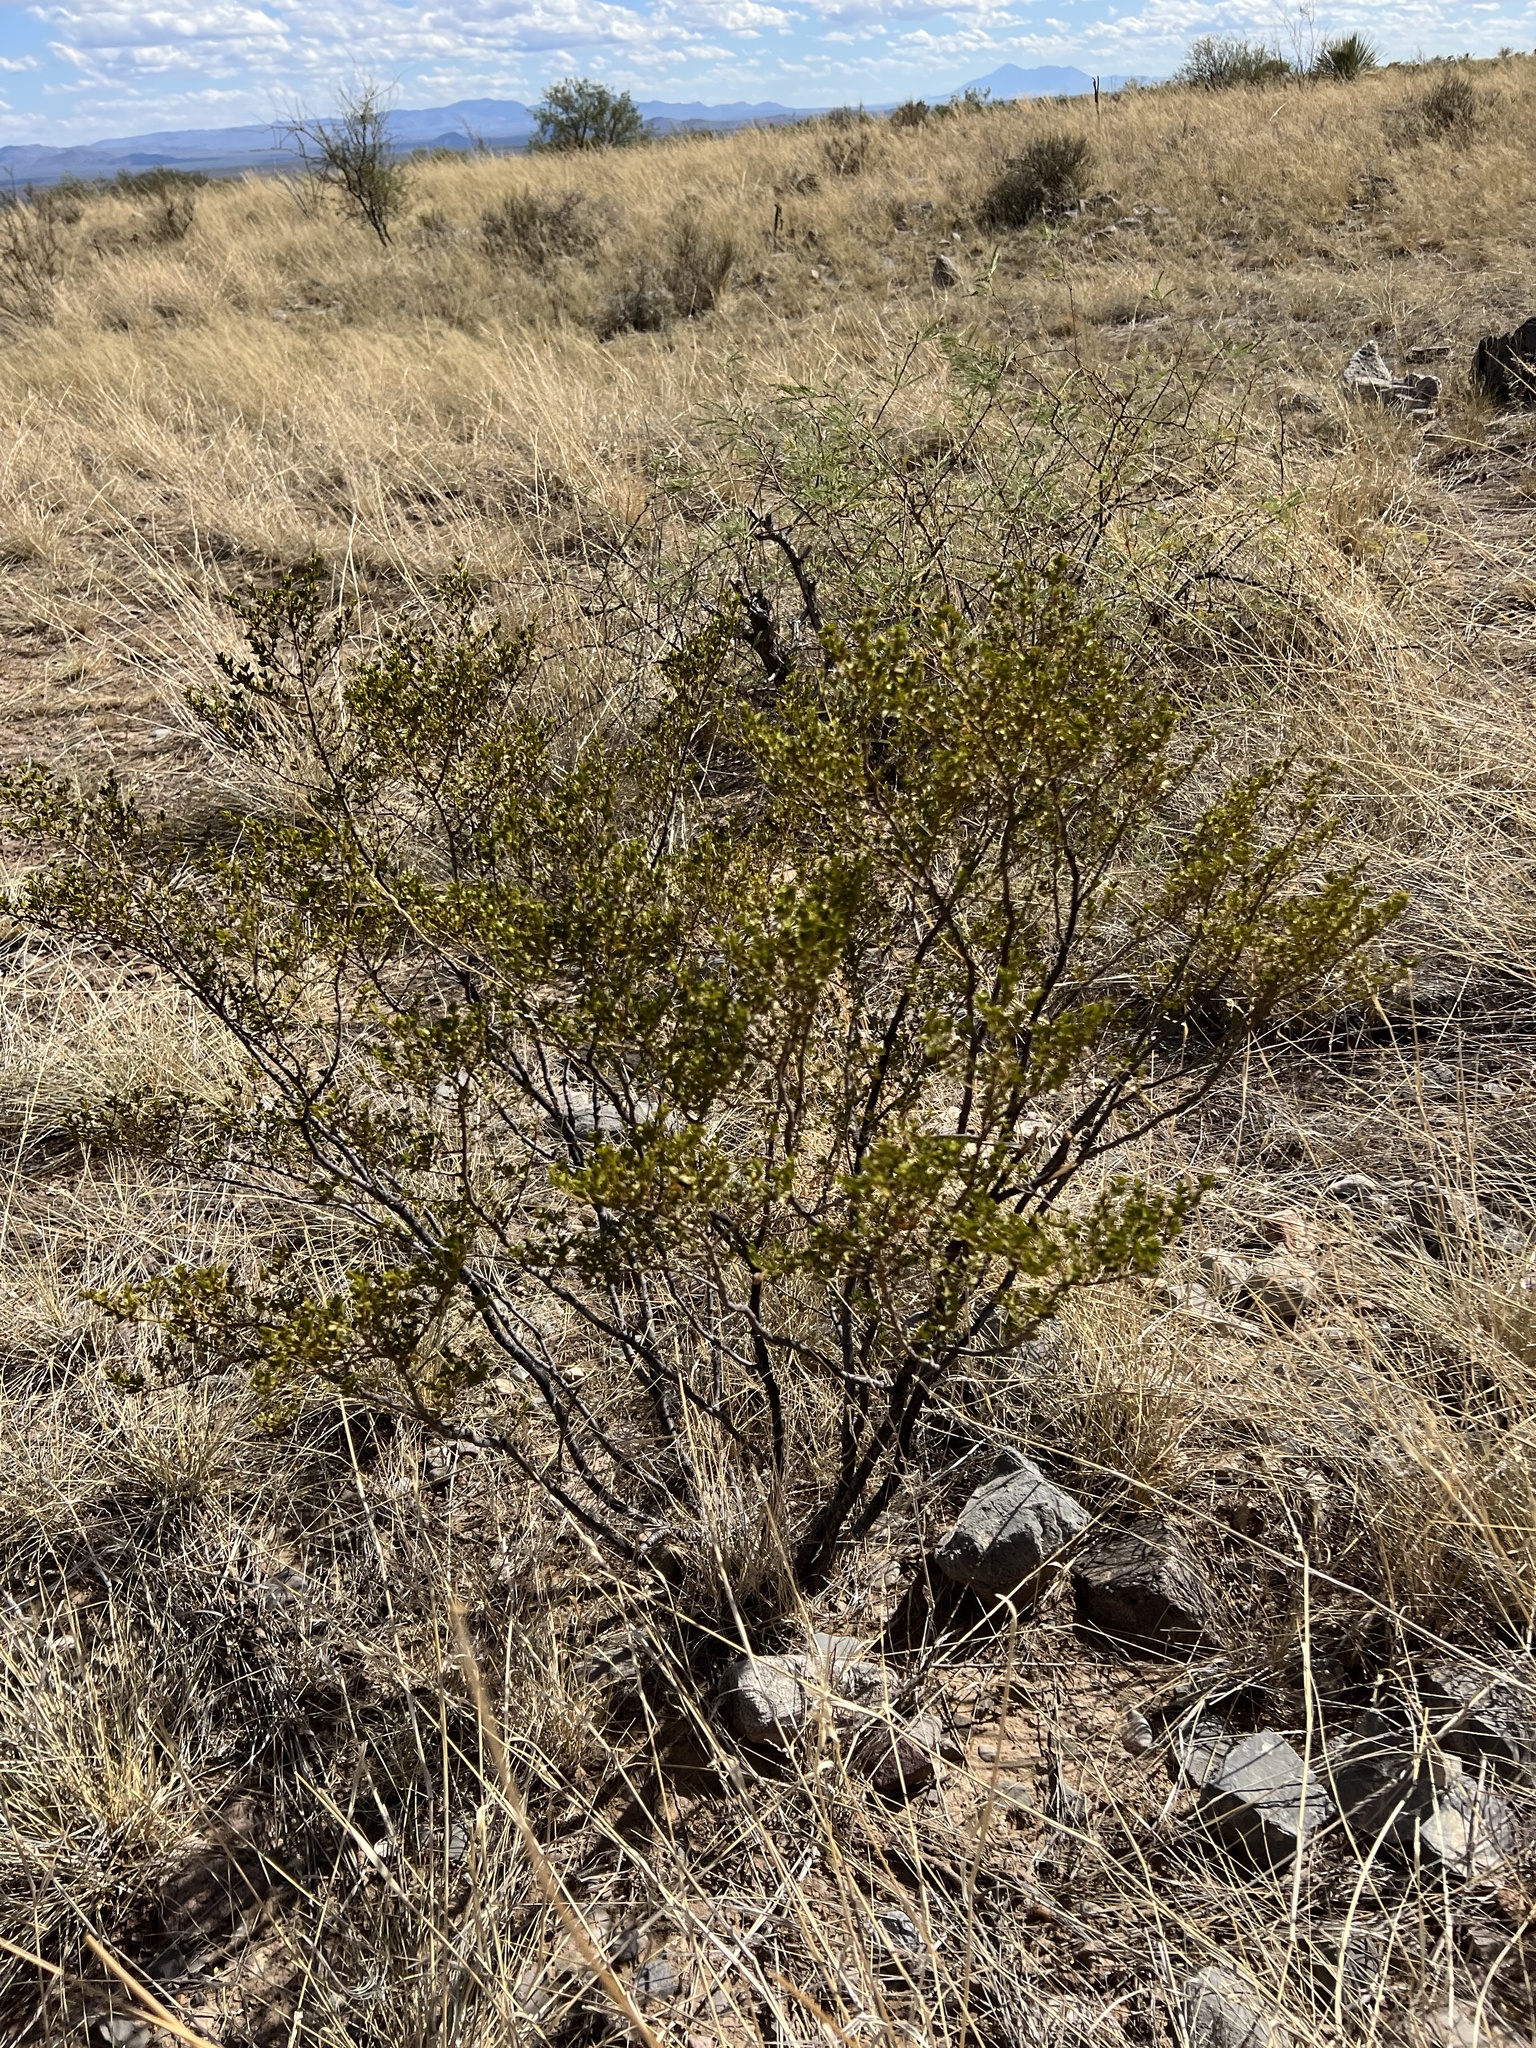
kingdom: Plantae
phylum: Tracheophyta
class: Magnoliopsida
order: Zygophyllales
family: Zygophyllaceae
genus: Larrea
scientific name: Larrea tridentata
